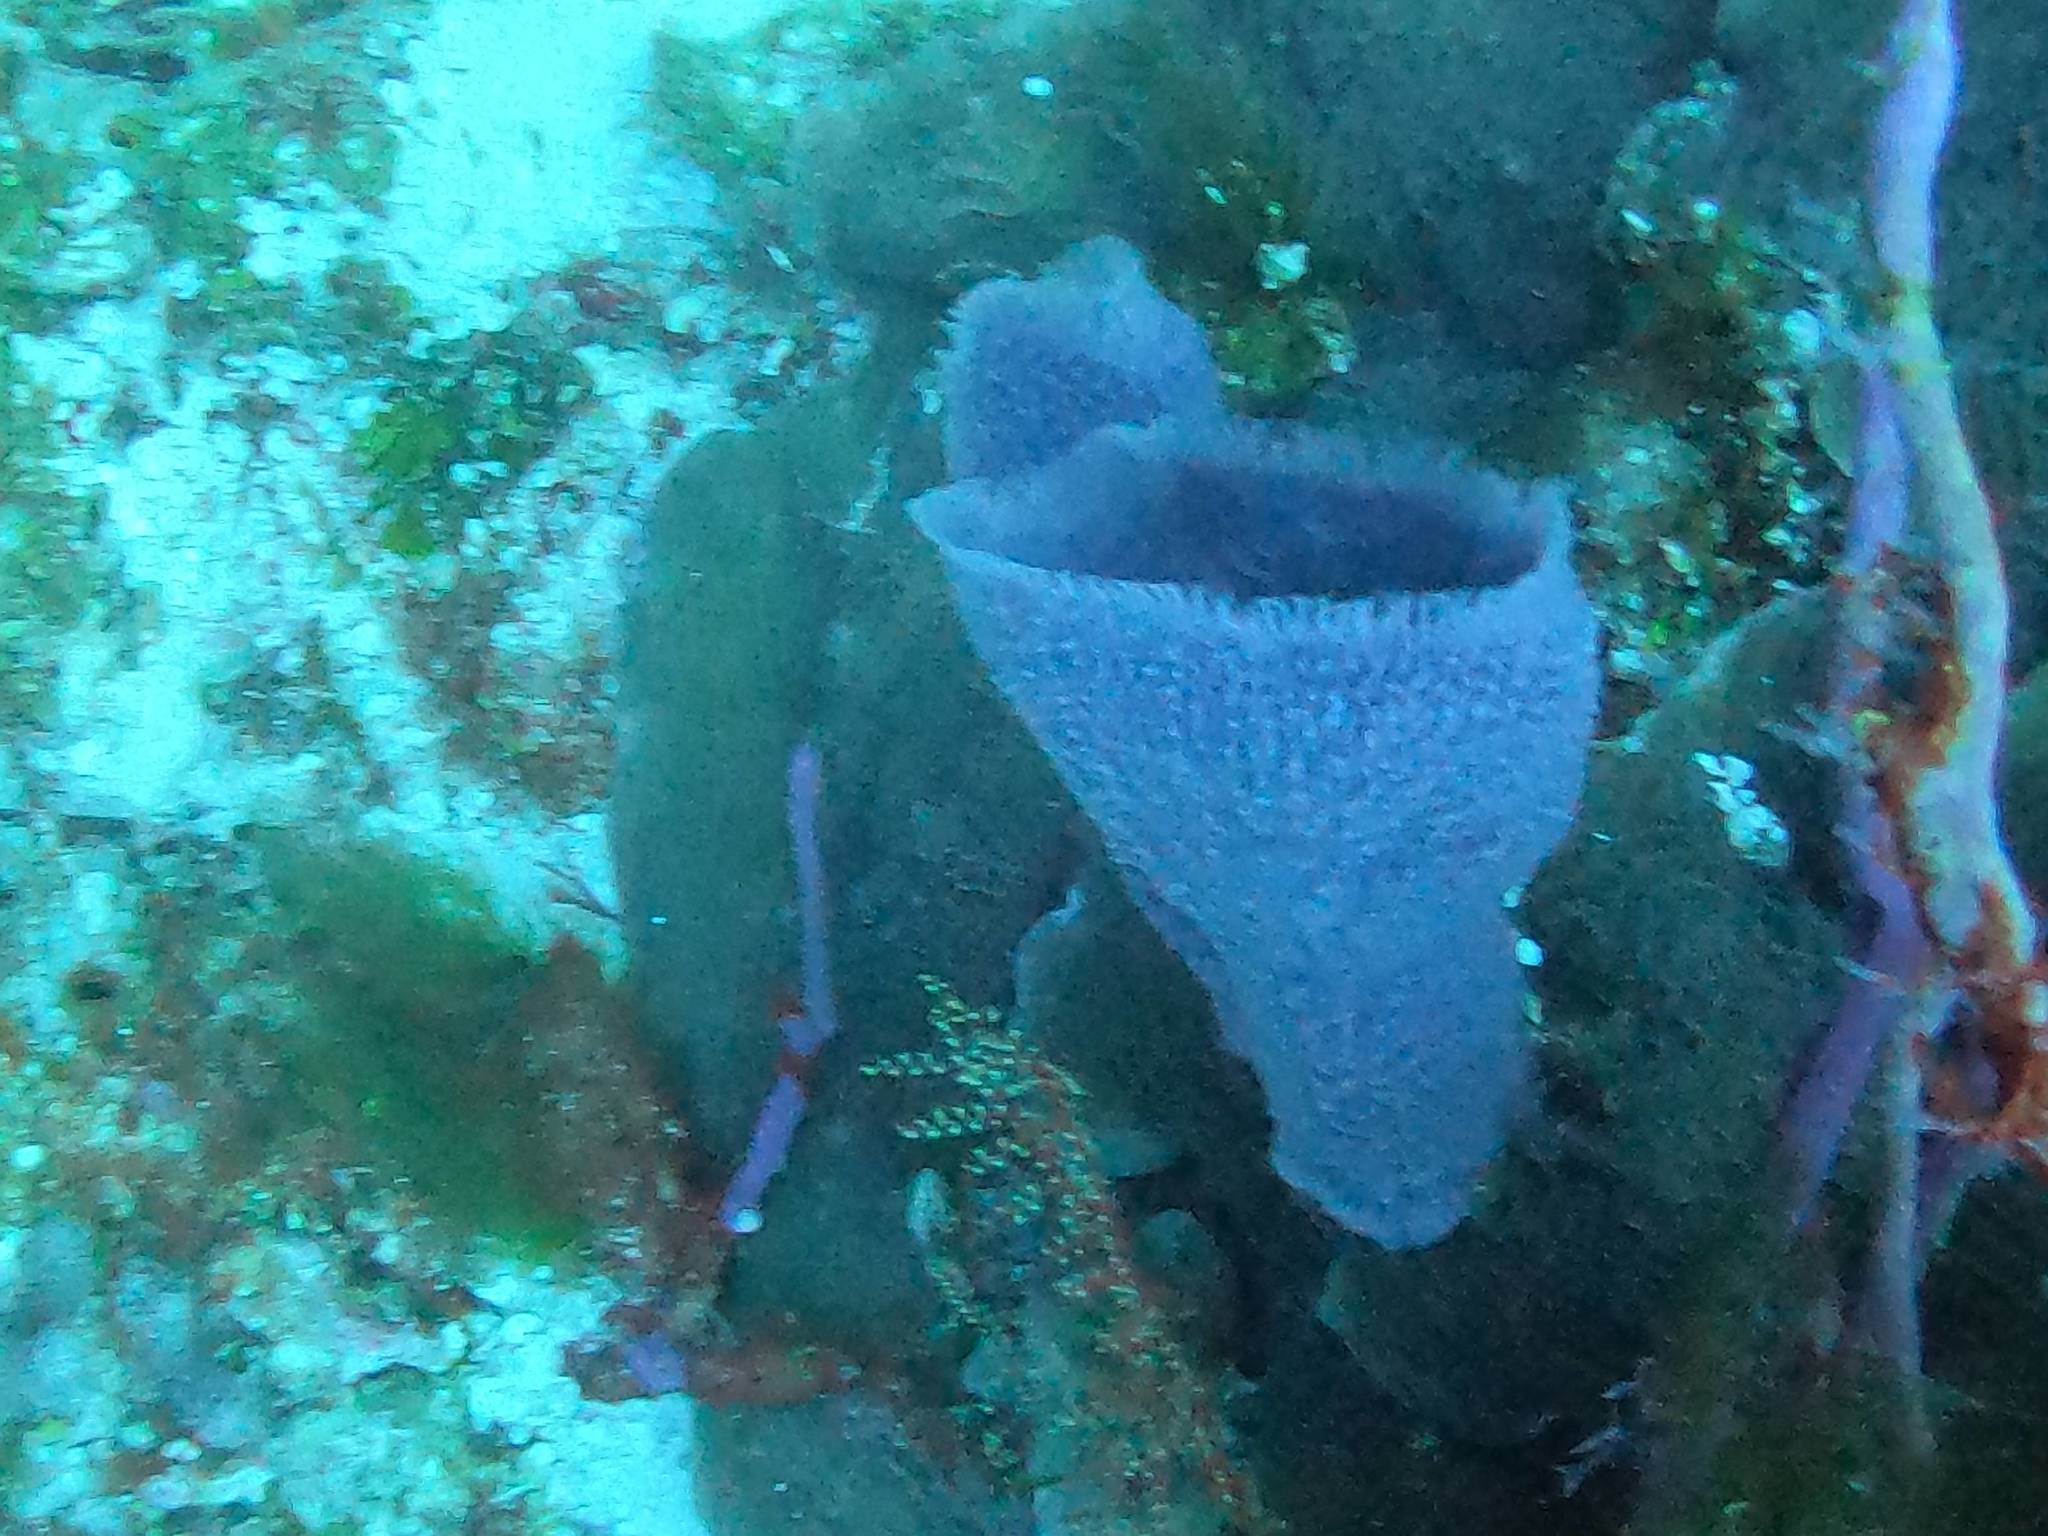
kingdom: Animalia
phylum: Porifera
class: Demospongiae
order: Haplosclerida
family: Niphatidae
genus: Niphates
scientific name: Niphates digitalis
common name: Pink vase sponge
